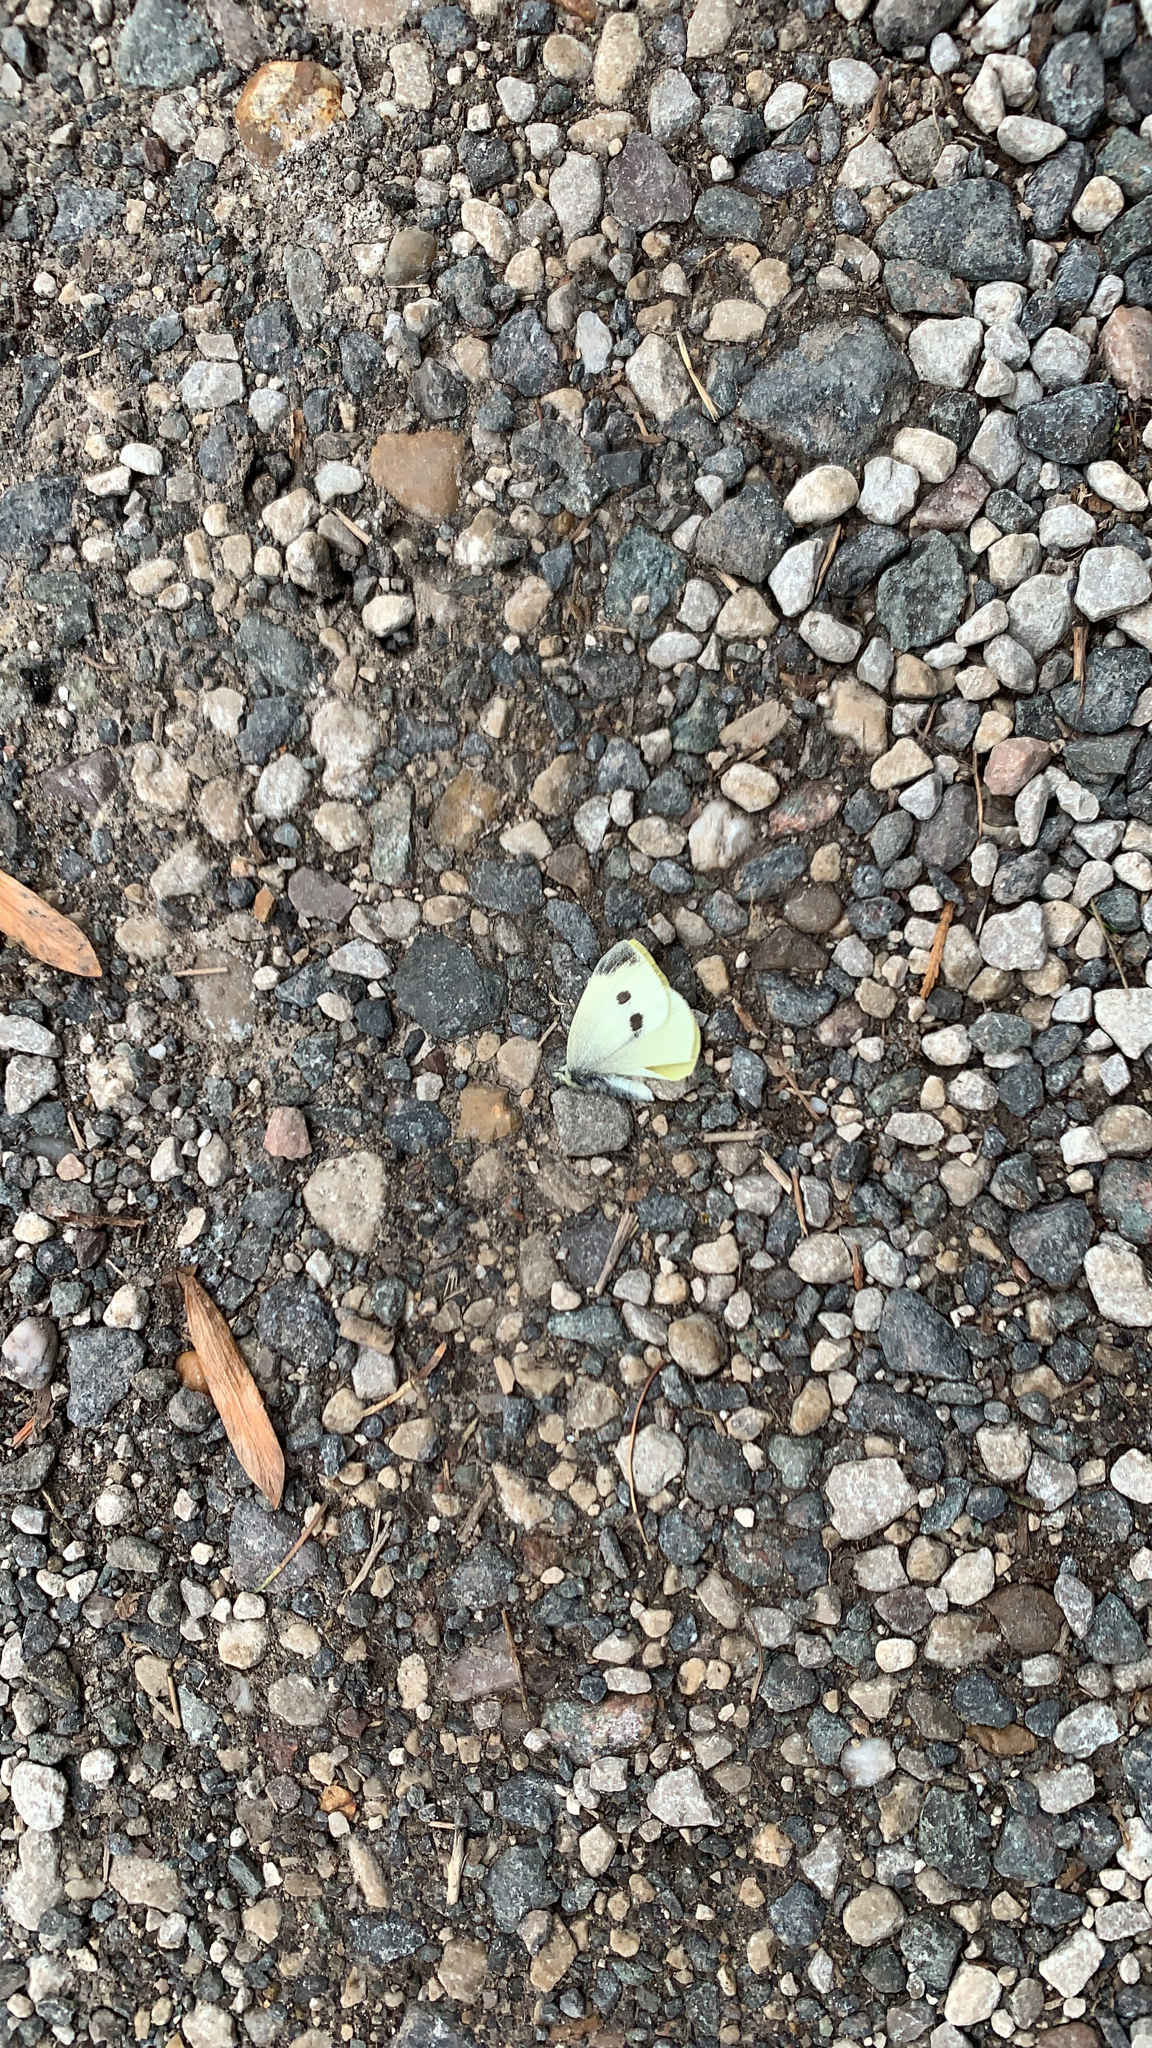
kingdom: Animalia
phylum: Arthropoda
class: Insecta
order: Lepidoptera
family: Pieridae
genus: Pieris
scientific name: Pieris rapae
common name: Small white
